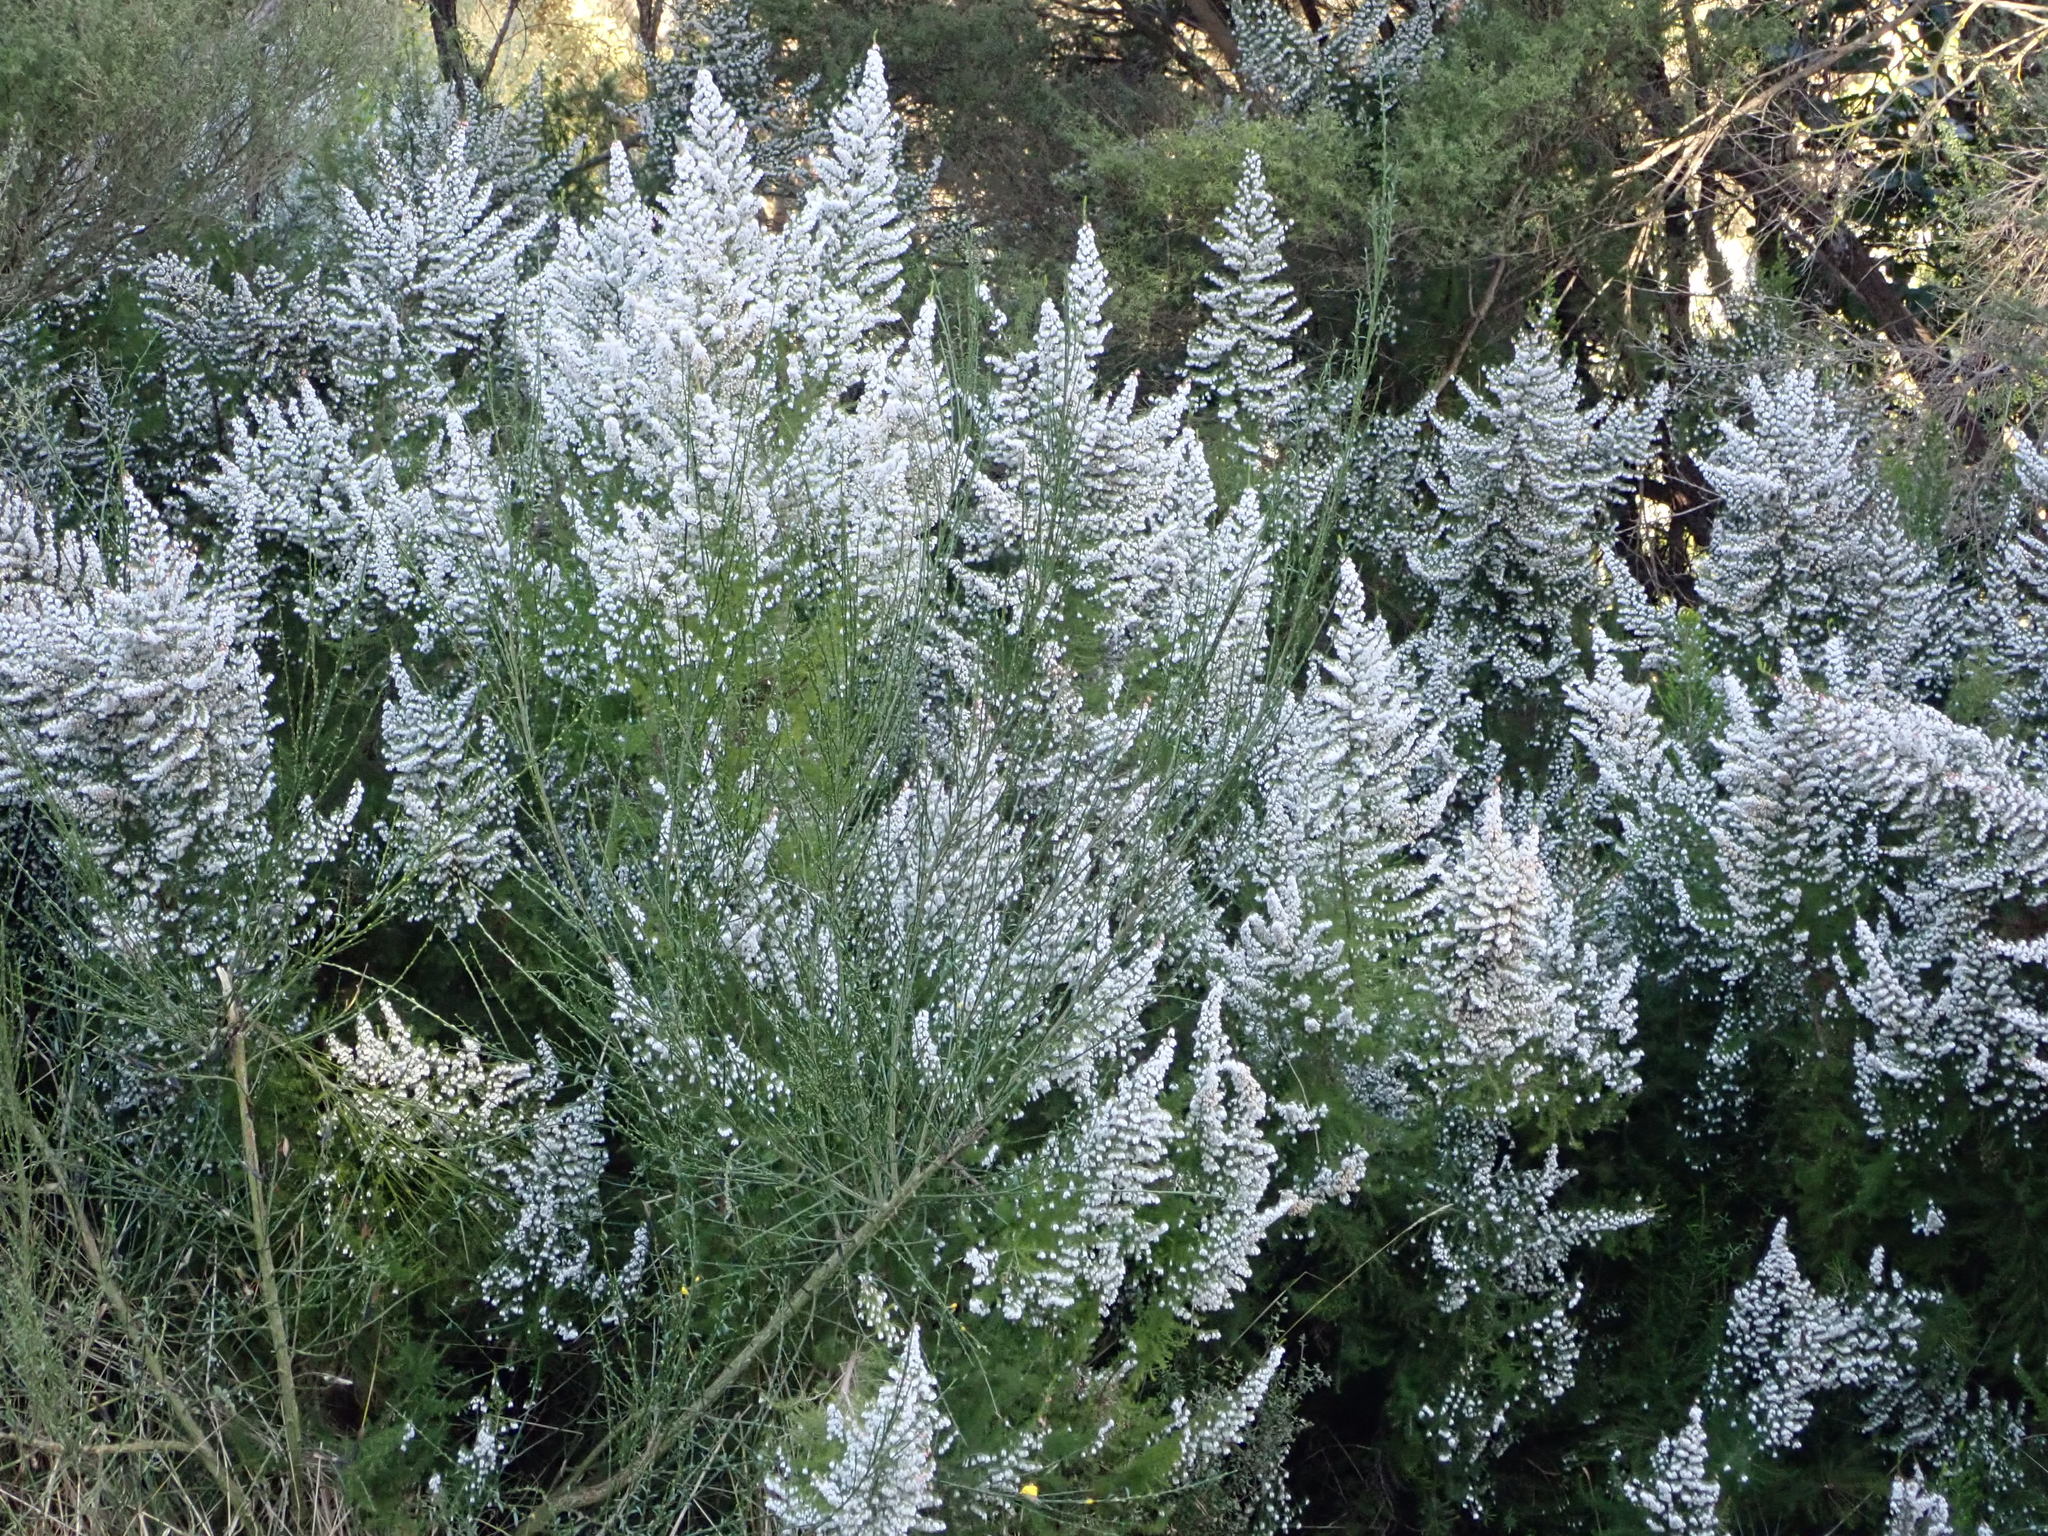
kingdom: Plantae
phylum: Tracheophyta
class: Magnoliopsida
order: Ericales
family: Ericaceae
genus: Erica
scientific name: Erica lusitanica
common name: Spanish heath
